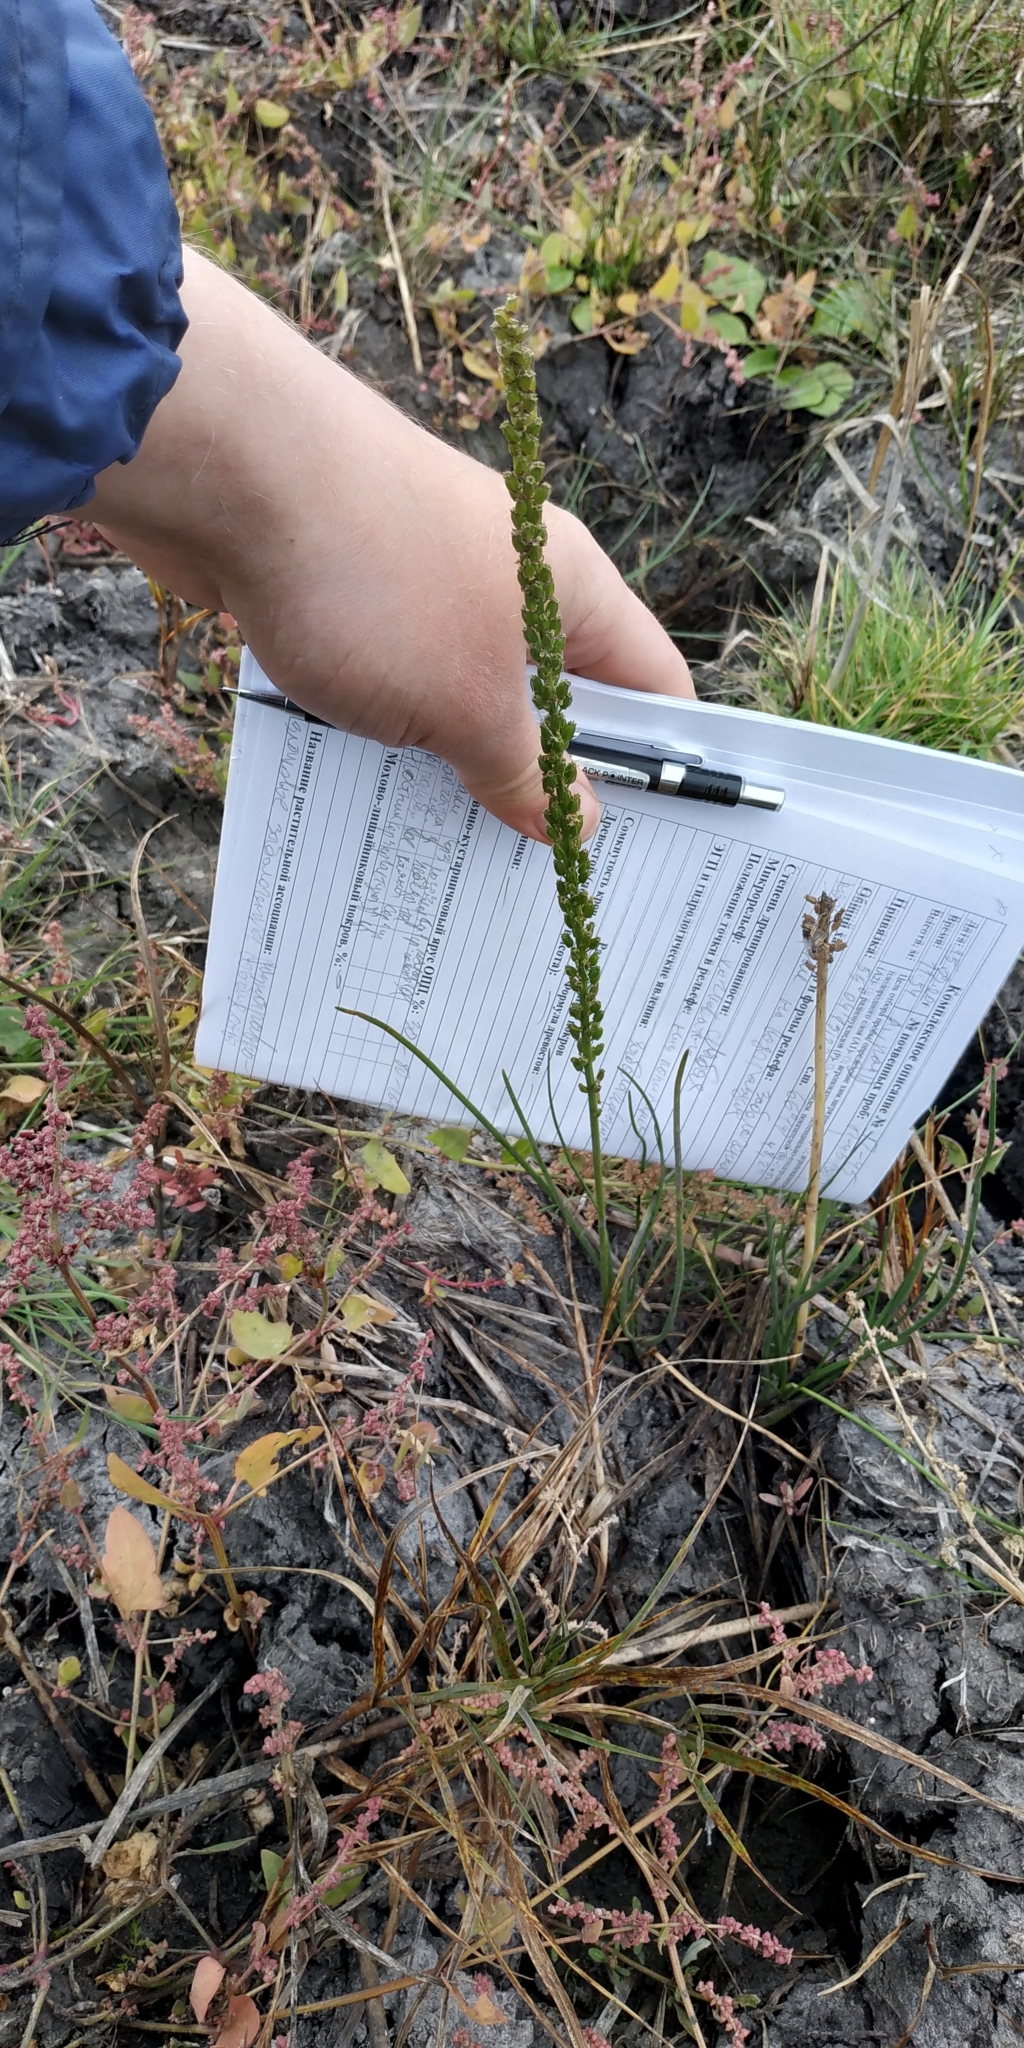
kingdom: Plantae
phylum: Tracheophyta
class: Liliopsida
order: Alismatales
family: Juncaginaceae
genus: Triglochin
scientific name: Triglochin maritima
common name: Sea arrowgrass
